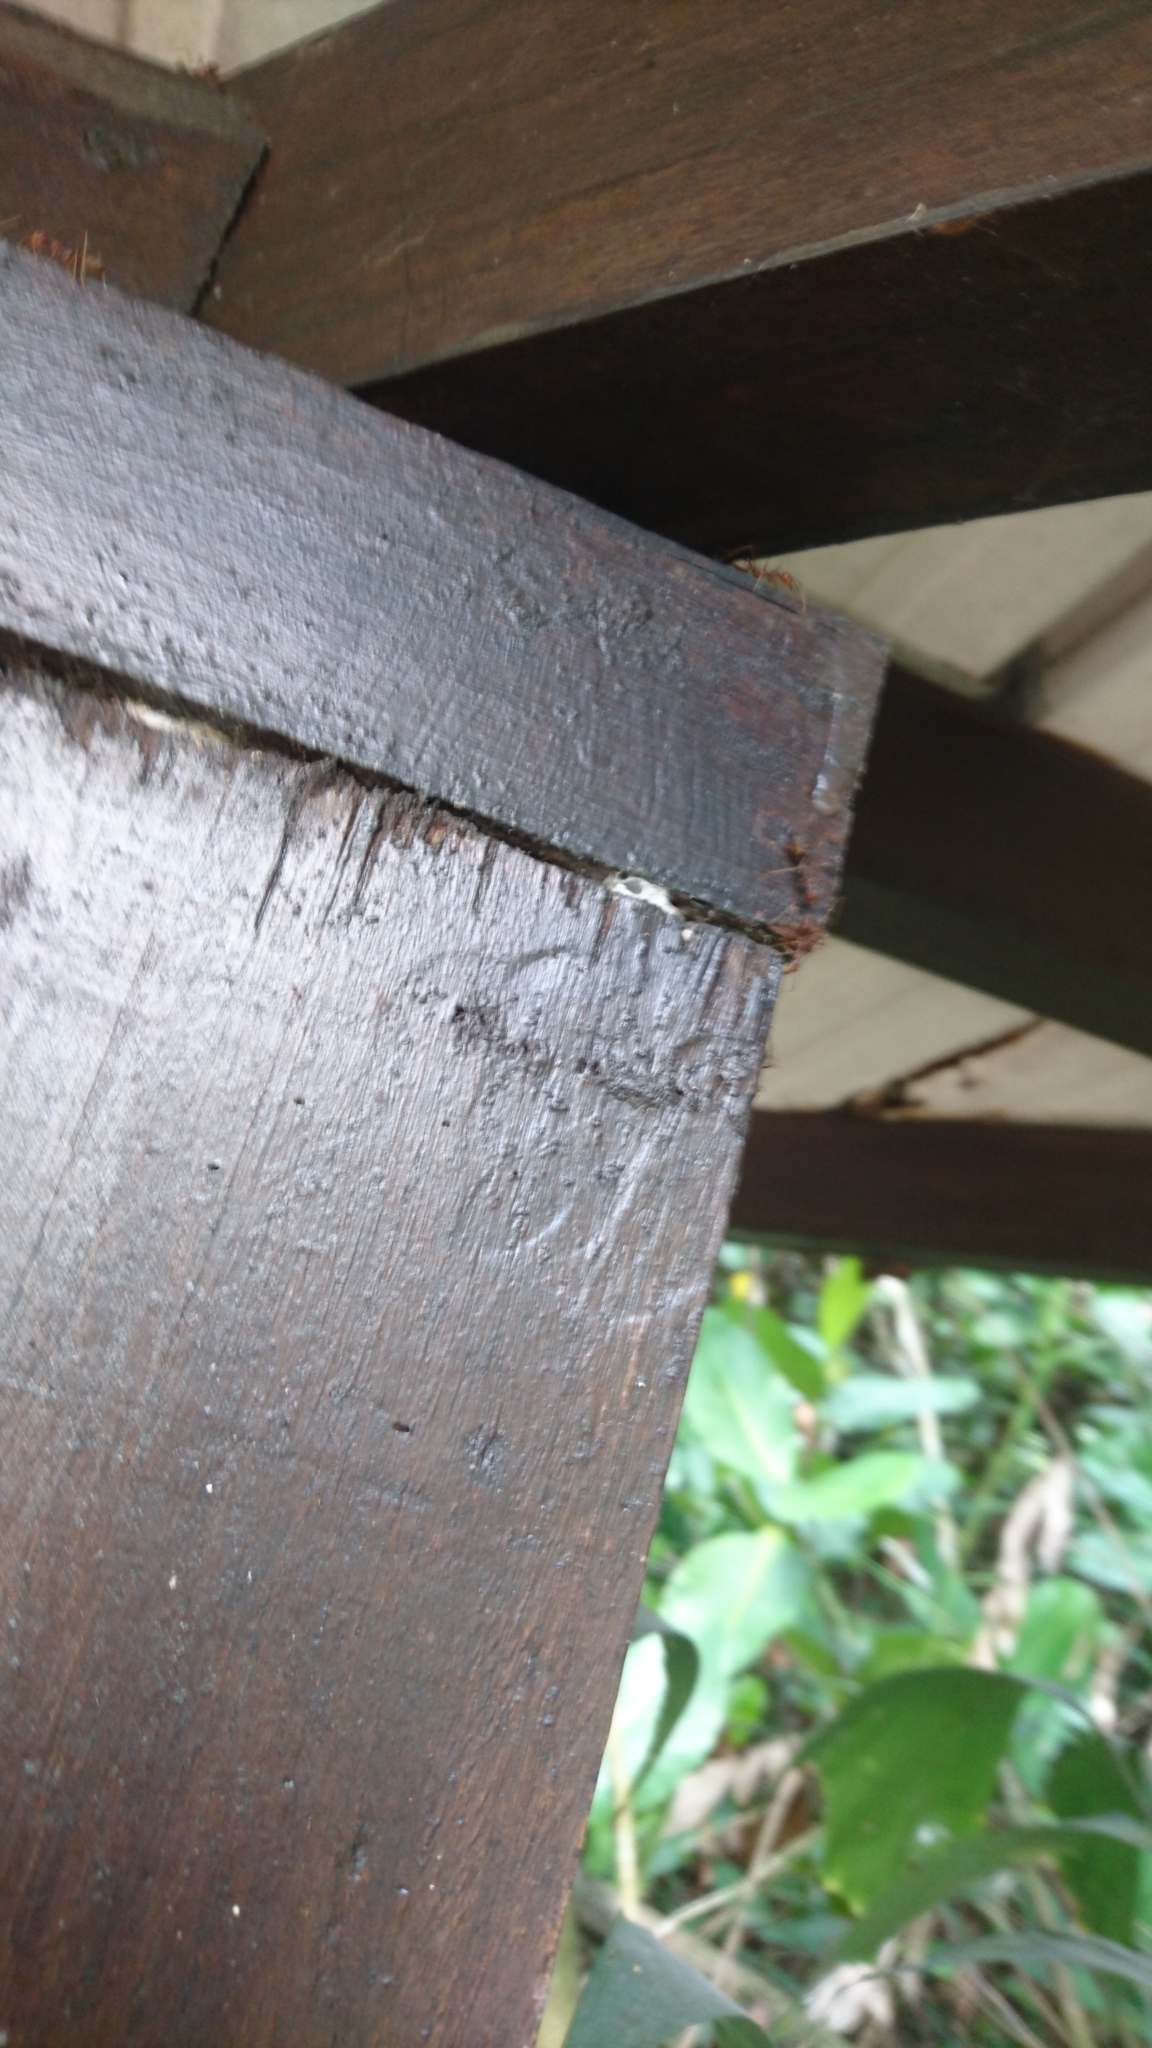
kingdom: Animalia
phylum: Arthropoda
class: Insecta
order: Hymenoptera
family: Formicidae
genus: Oecophylla
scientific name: Oecophylla smaragdina
